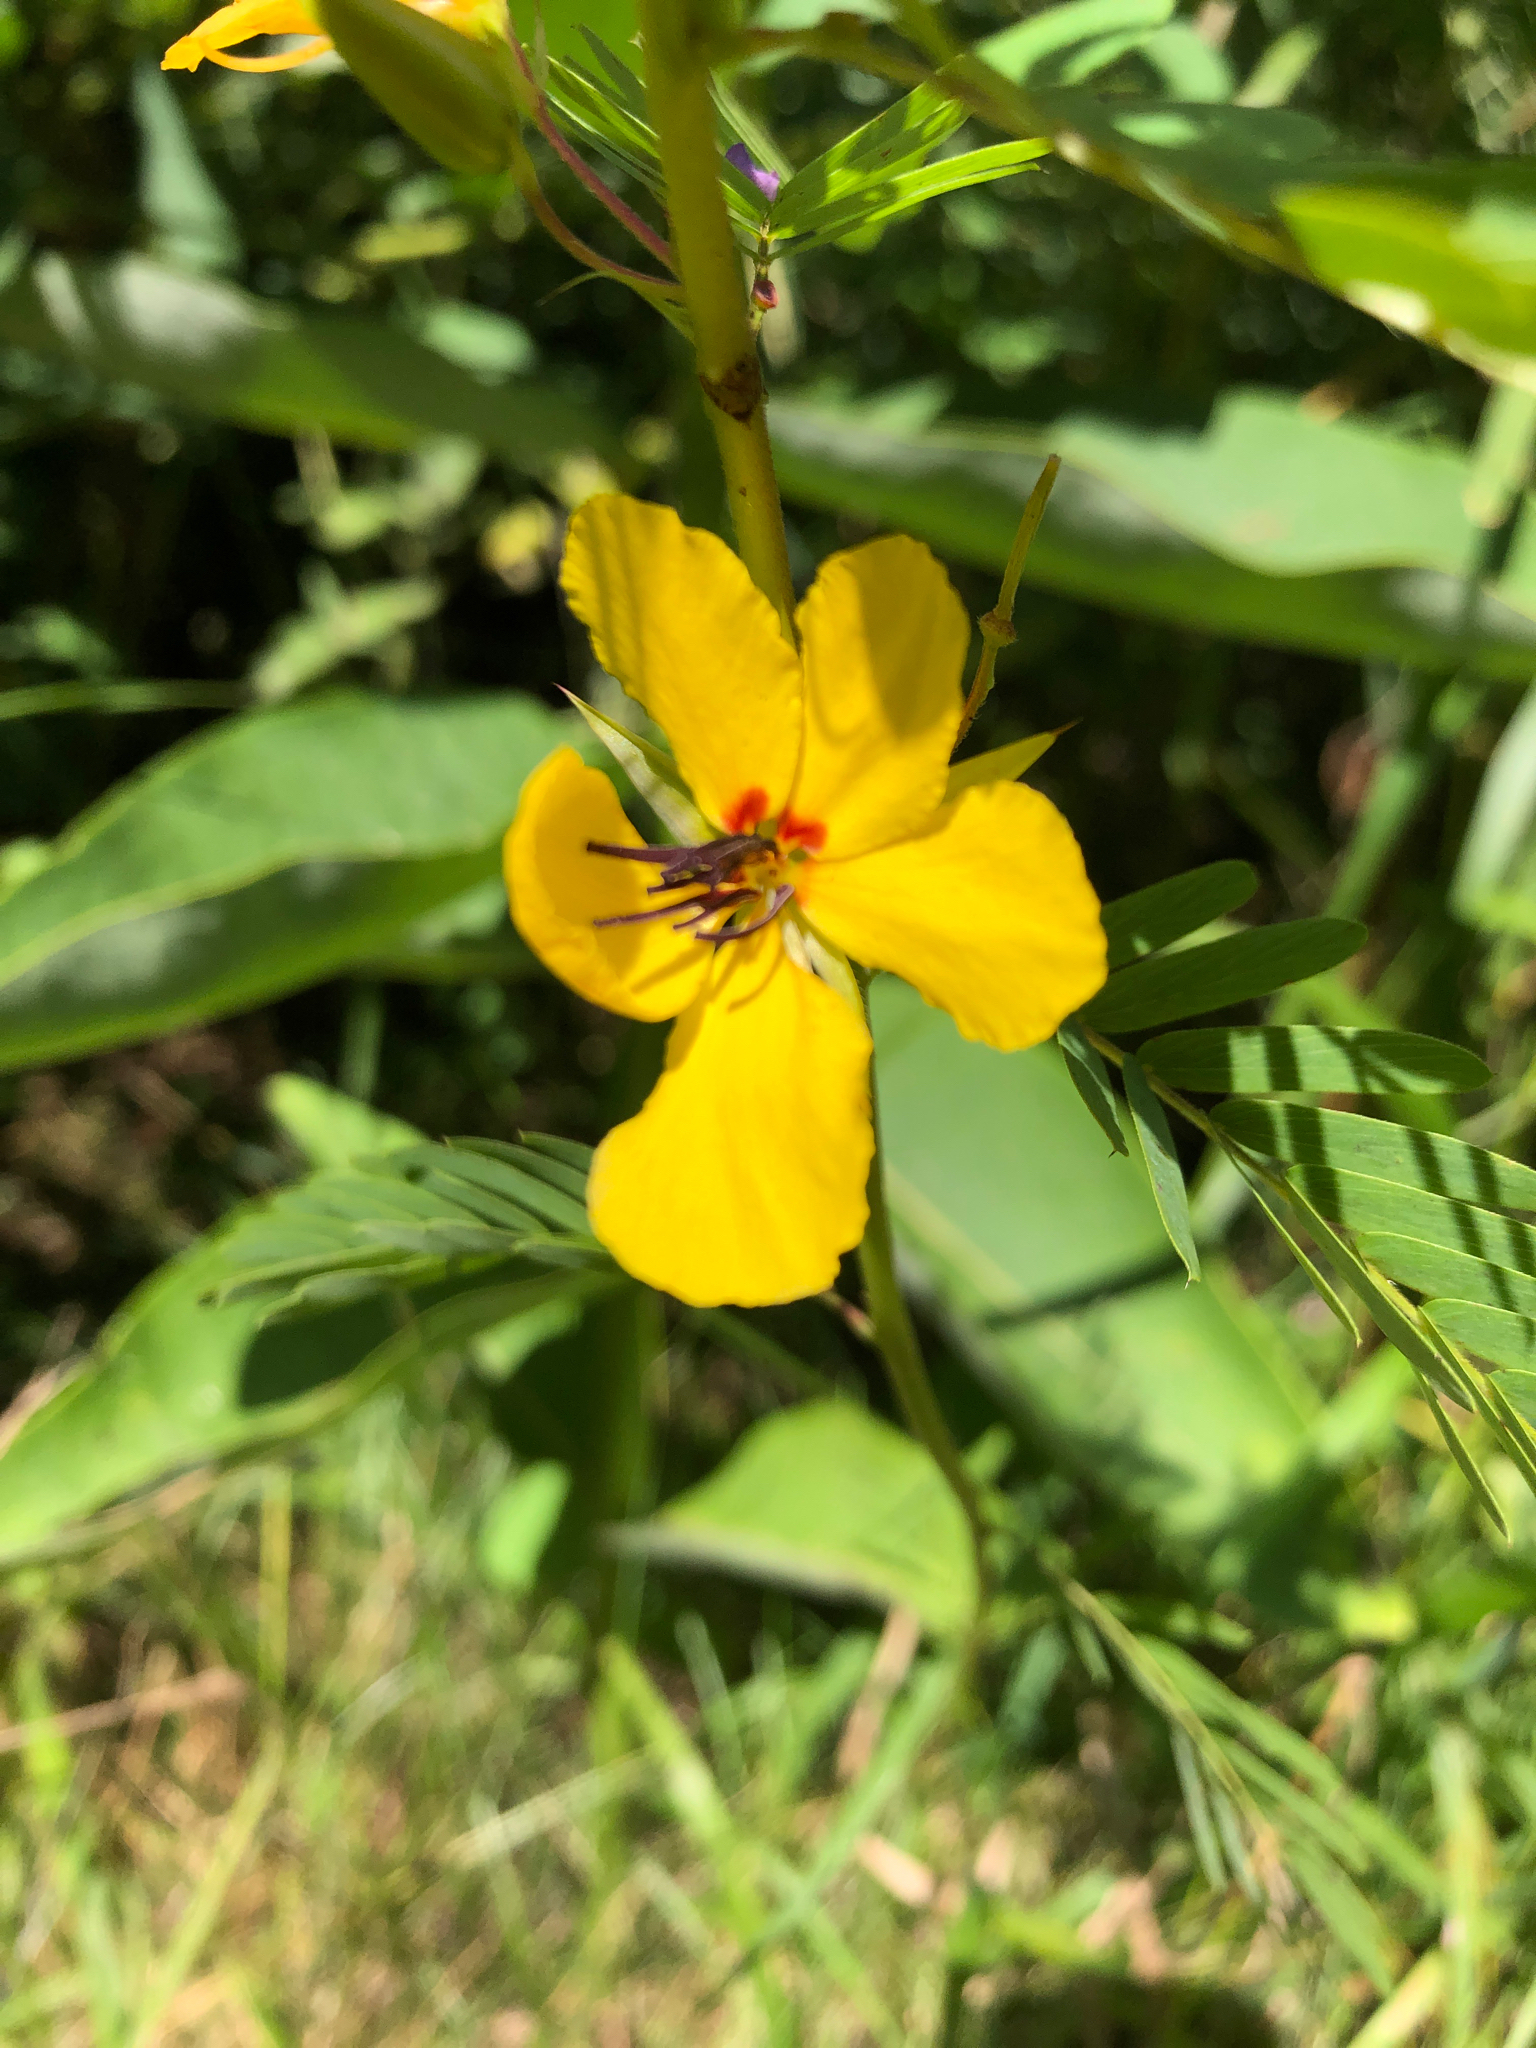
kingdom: Plantae
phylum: Tracheophyta
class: Magnoliopsida
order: Fabales
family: Fabaceae
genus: Chamaecrista
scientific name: Chamaecrista fasciculata
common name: Golden cassia
